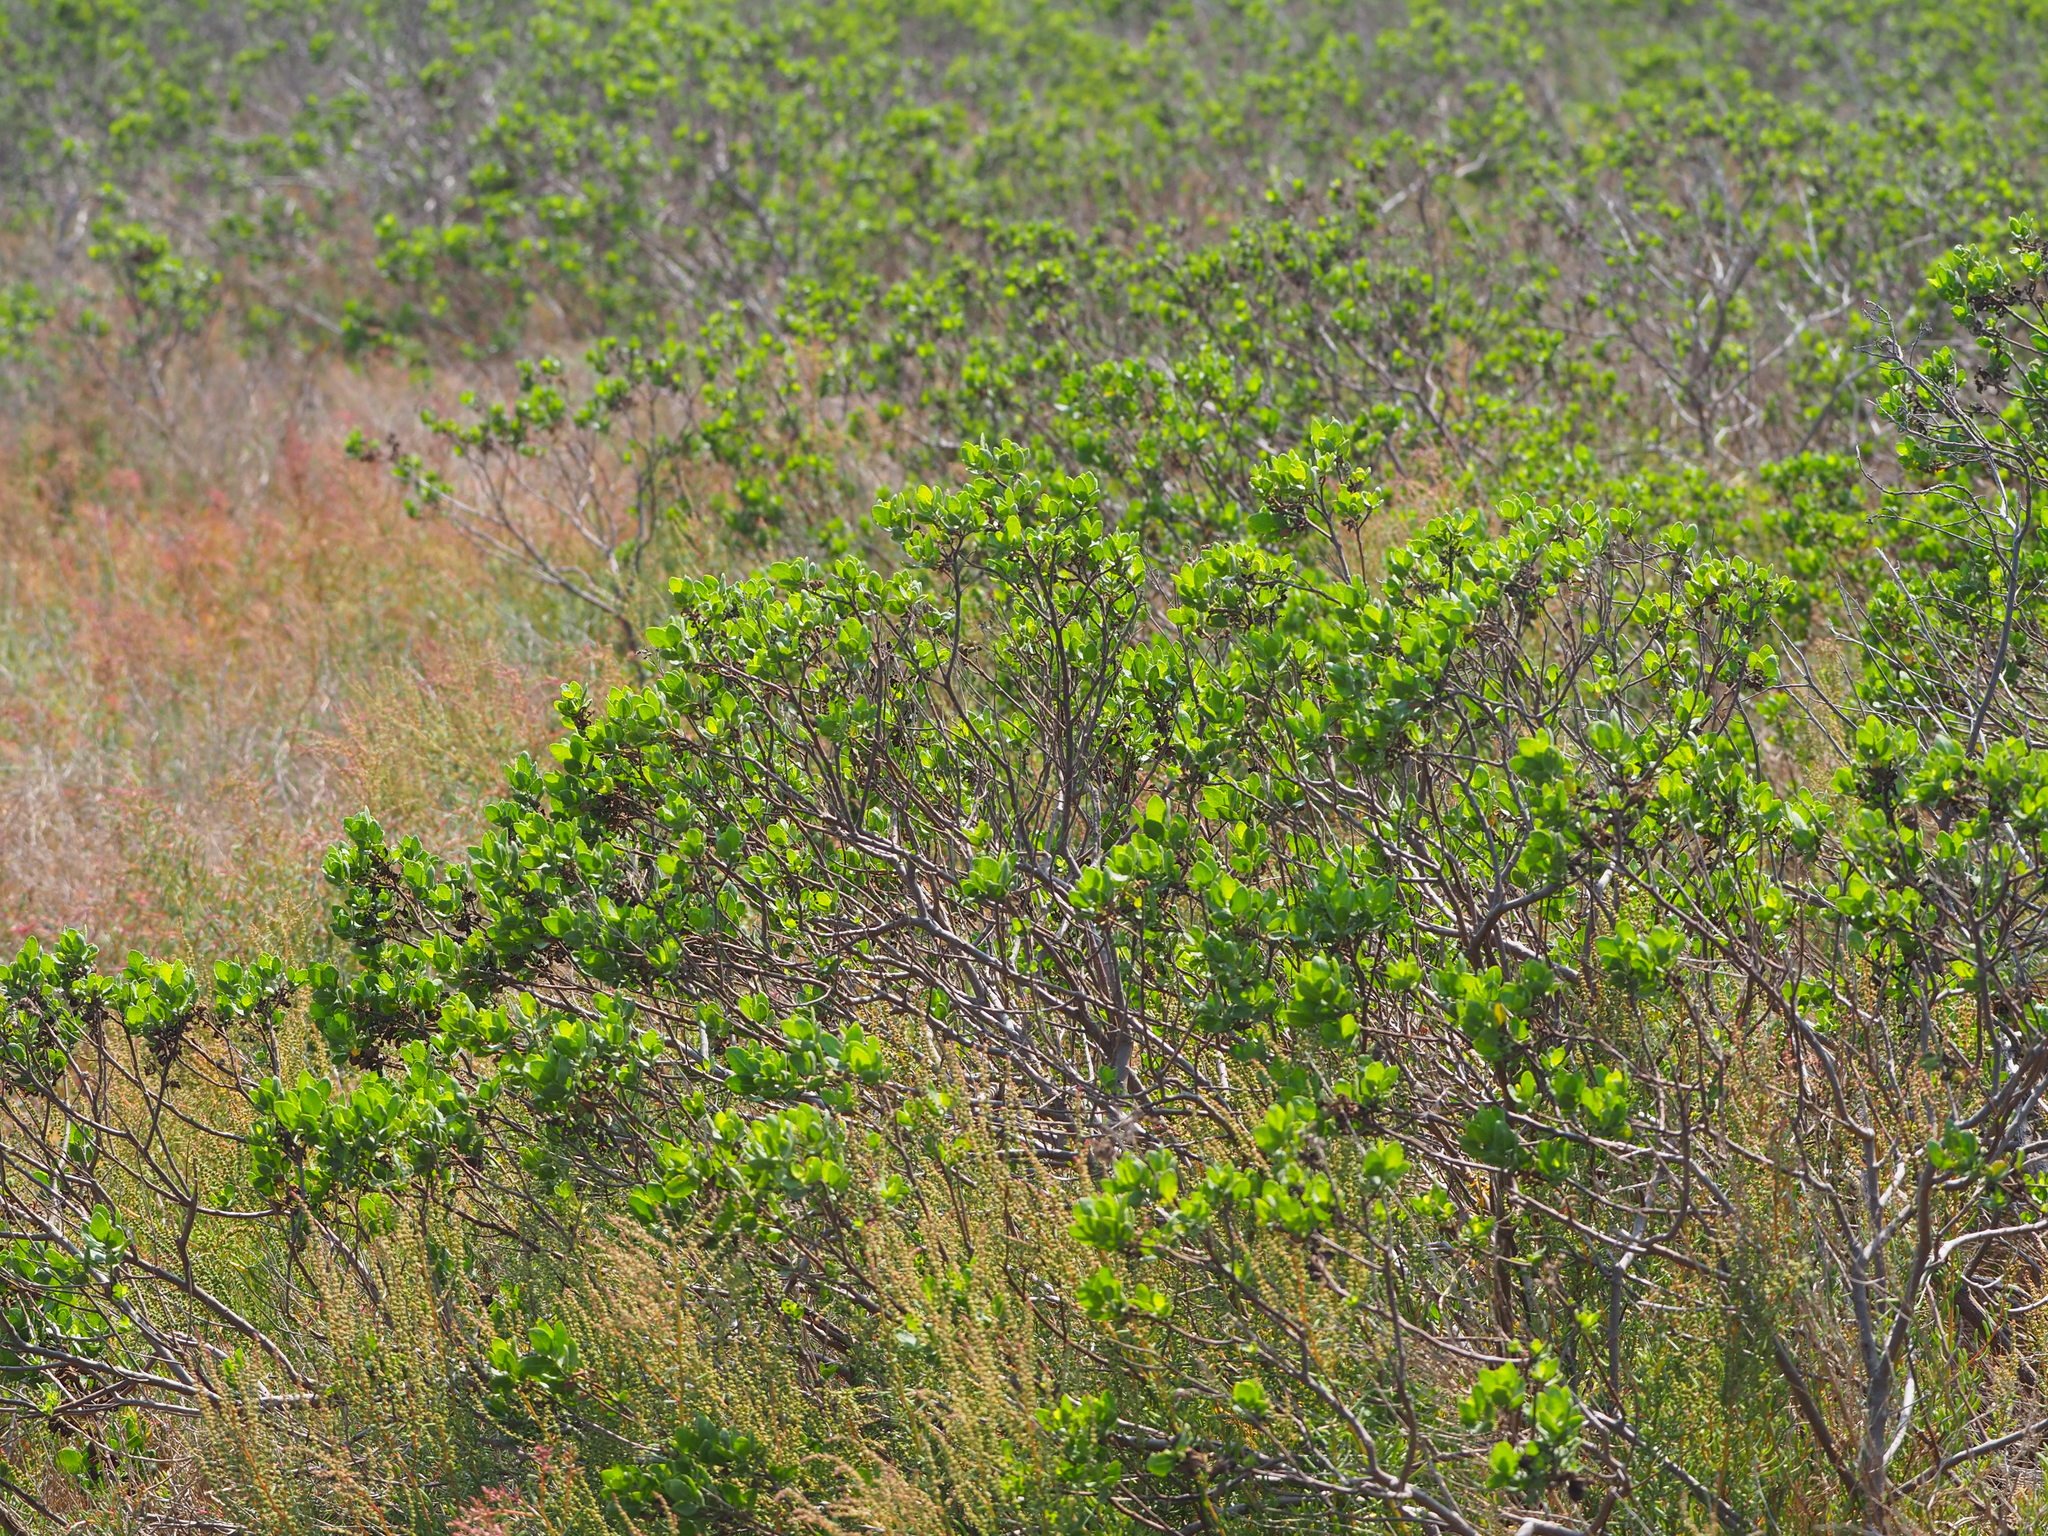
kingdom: Plantae
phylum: Tracheophyta
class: Magnoliopsida
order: Asterales
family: Asteraceae
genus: Pluchea
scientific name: Pluchea indica
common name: Indian fleabane
